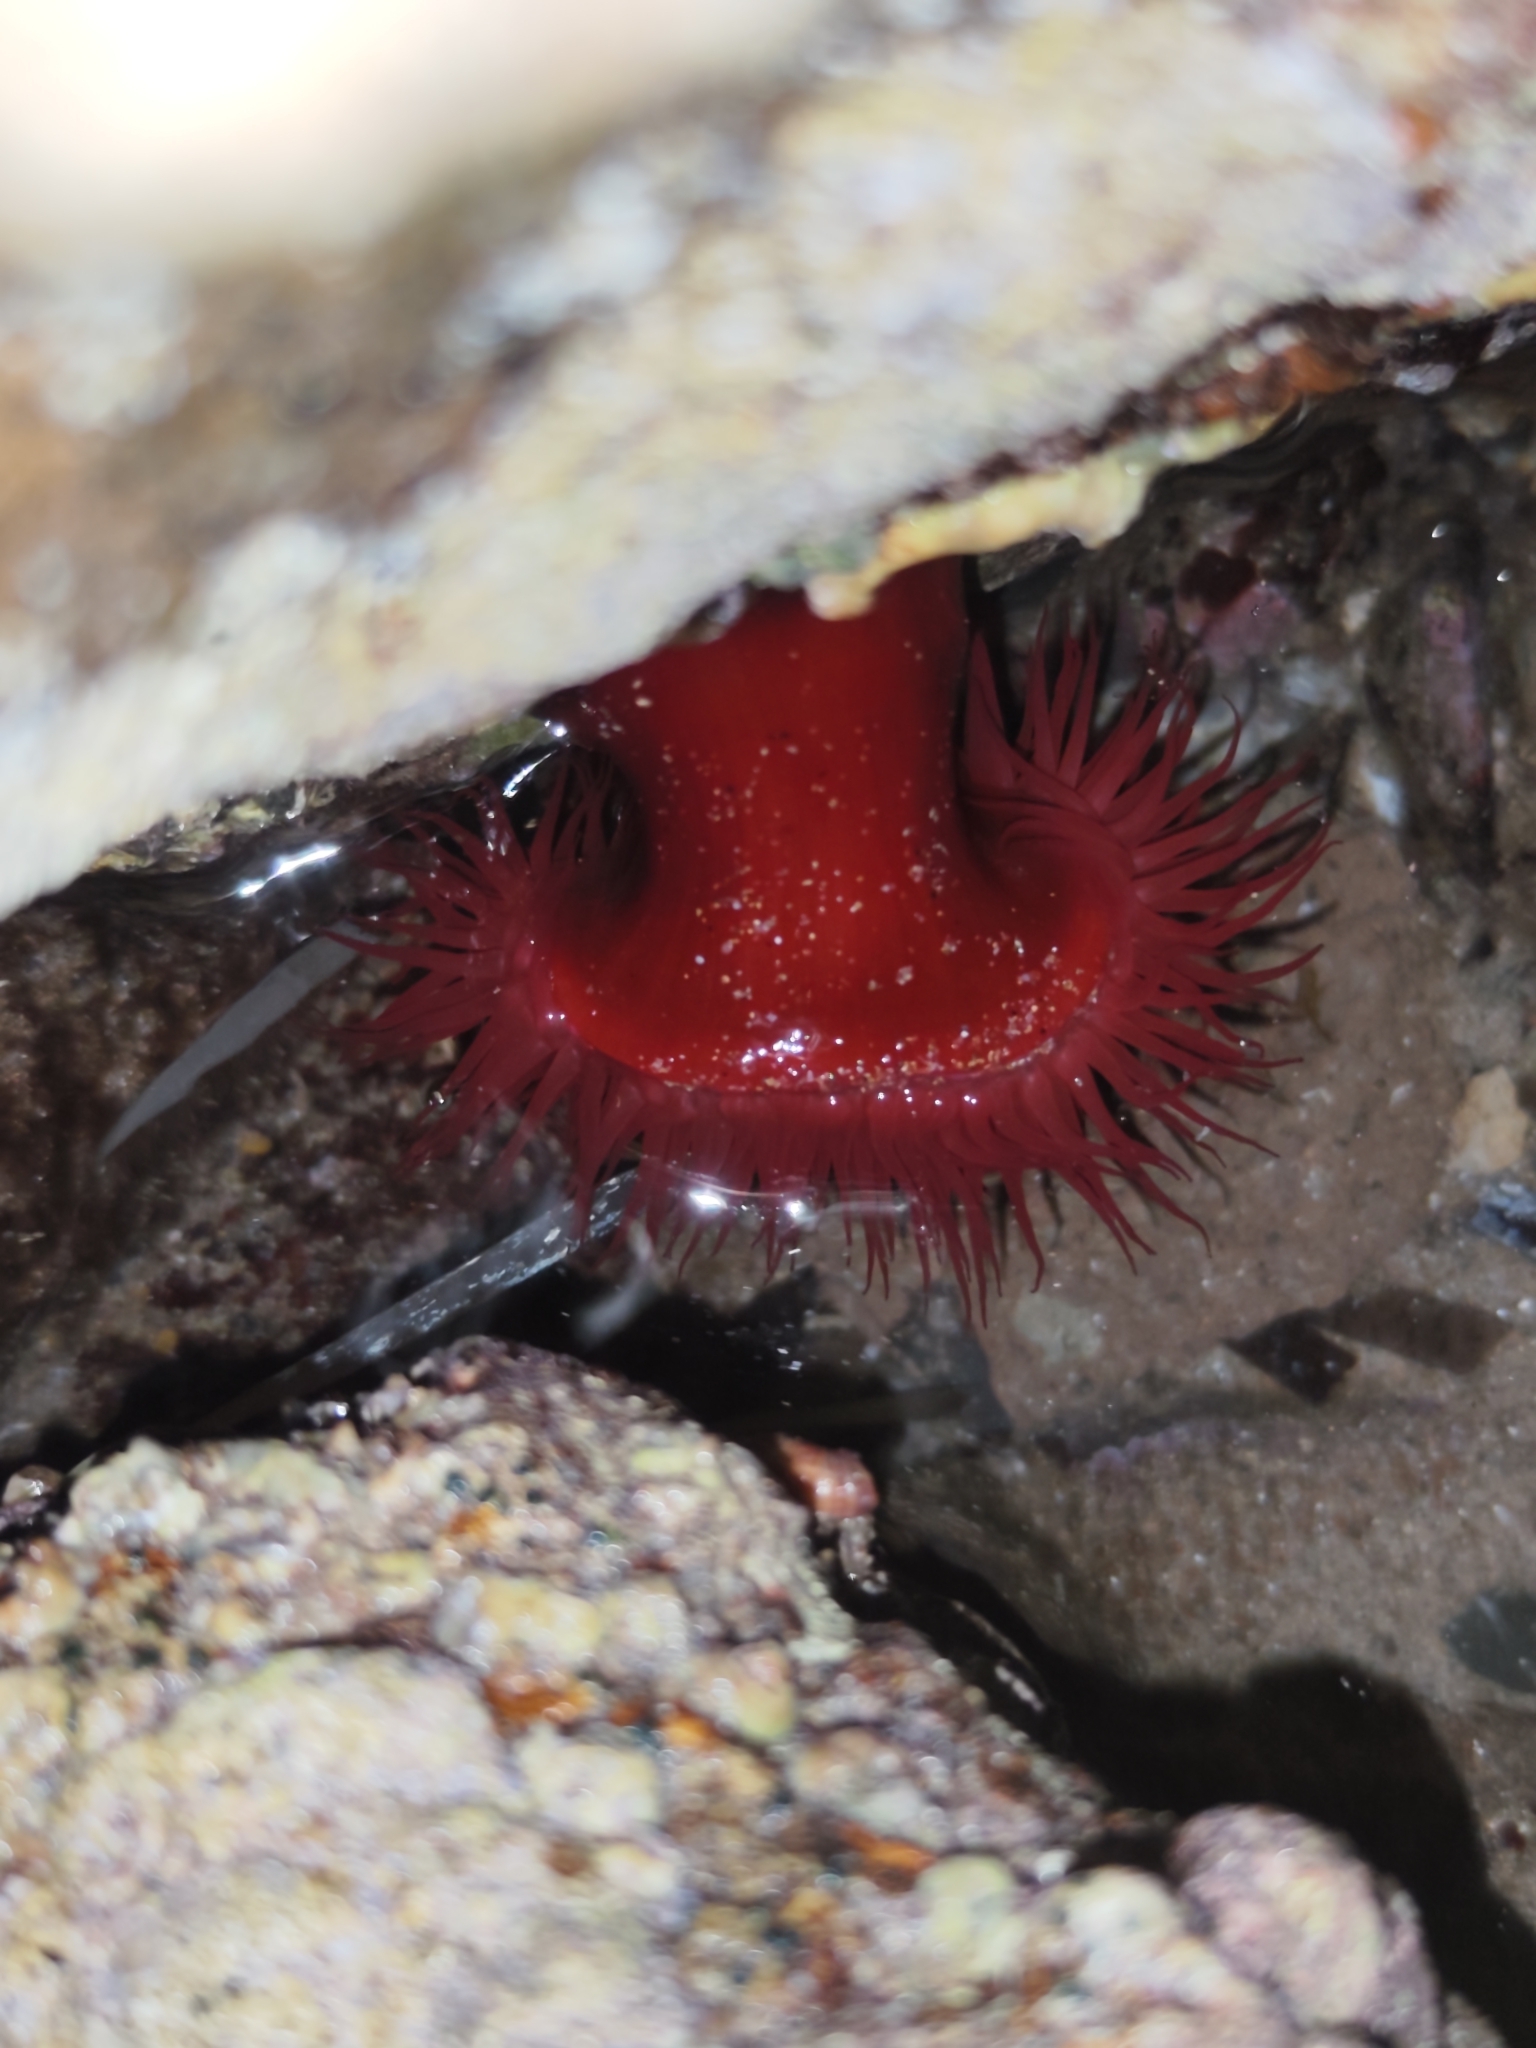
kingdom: Animalia
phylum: Cnidaria
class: Anthozoa
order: Actiniaria
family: Actiniidae
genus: Actinia
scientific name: Actinia mediterranea
